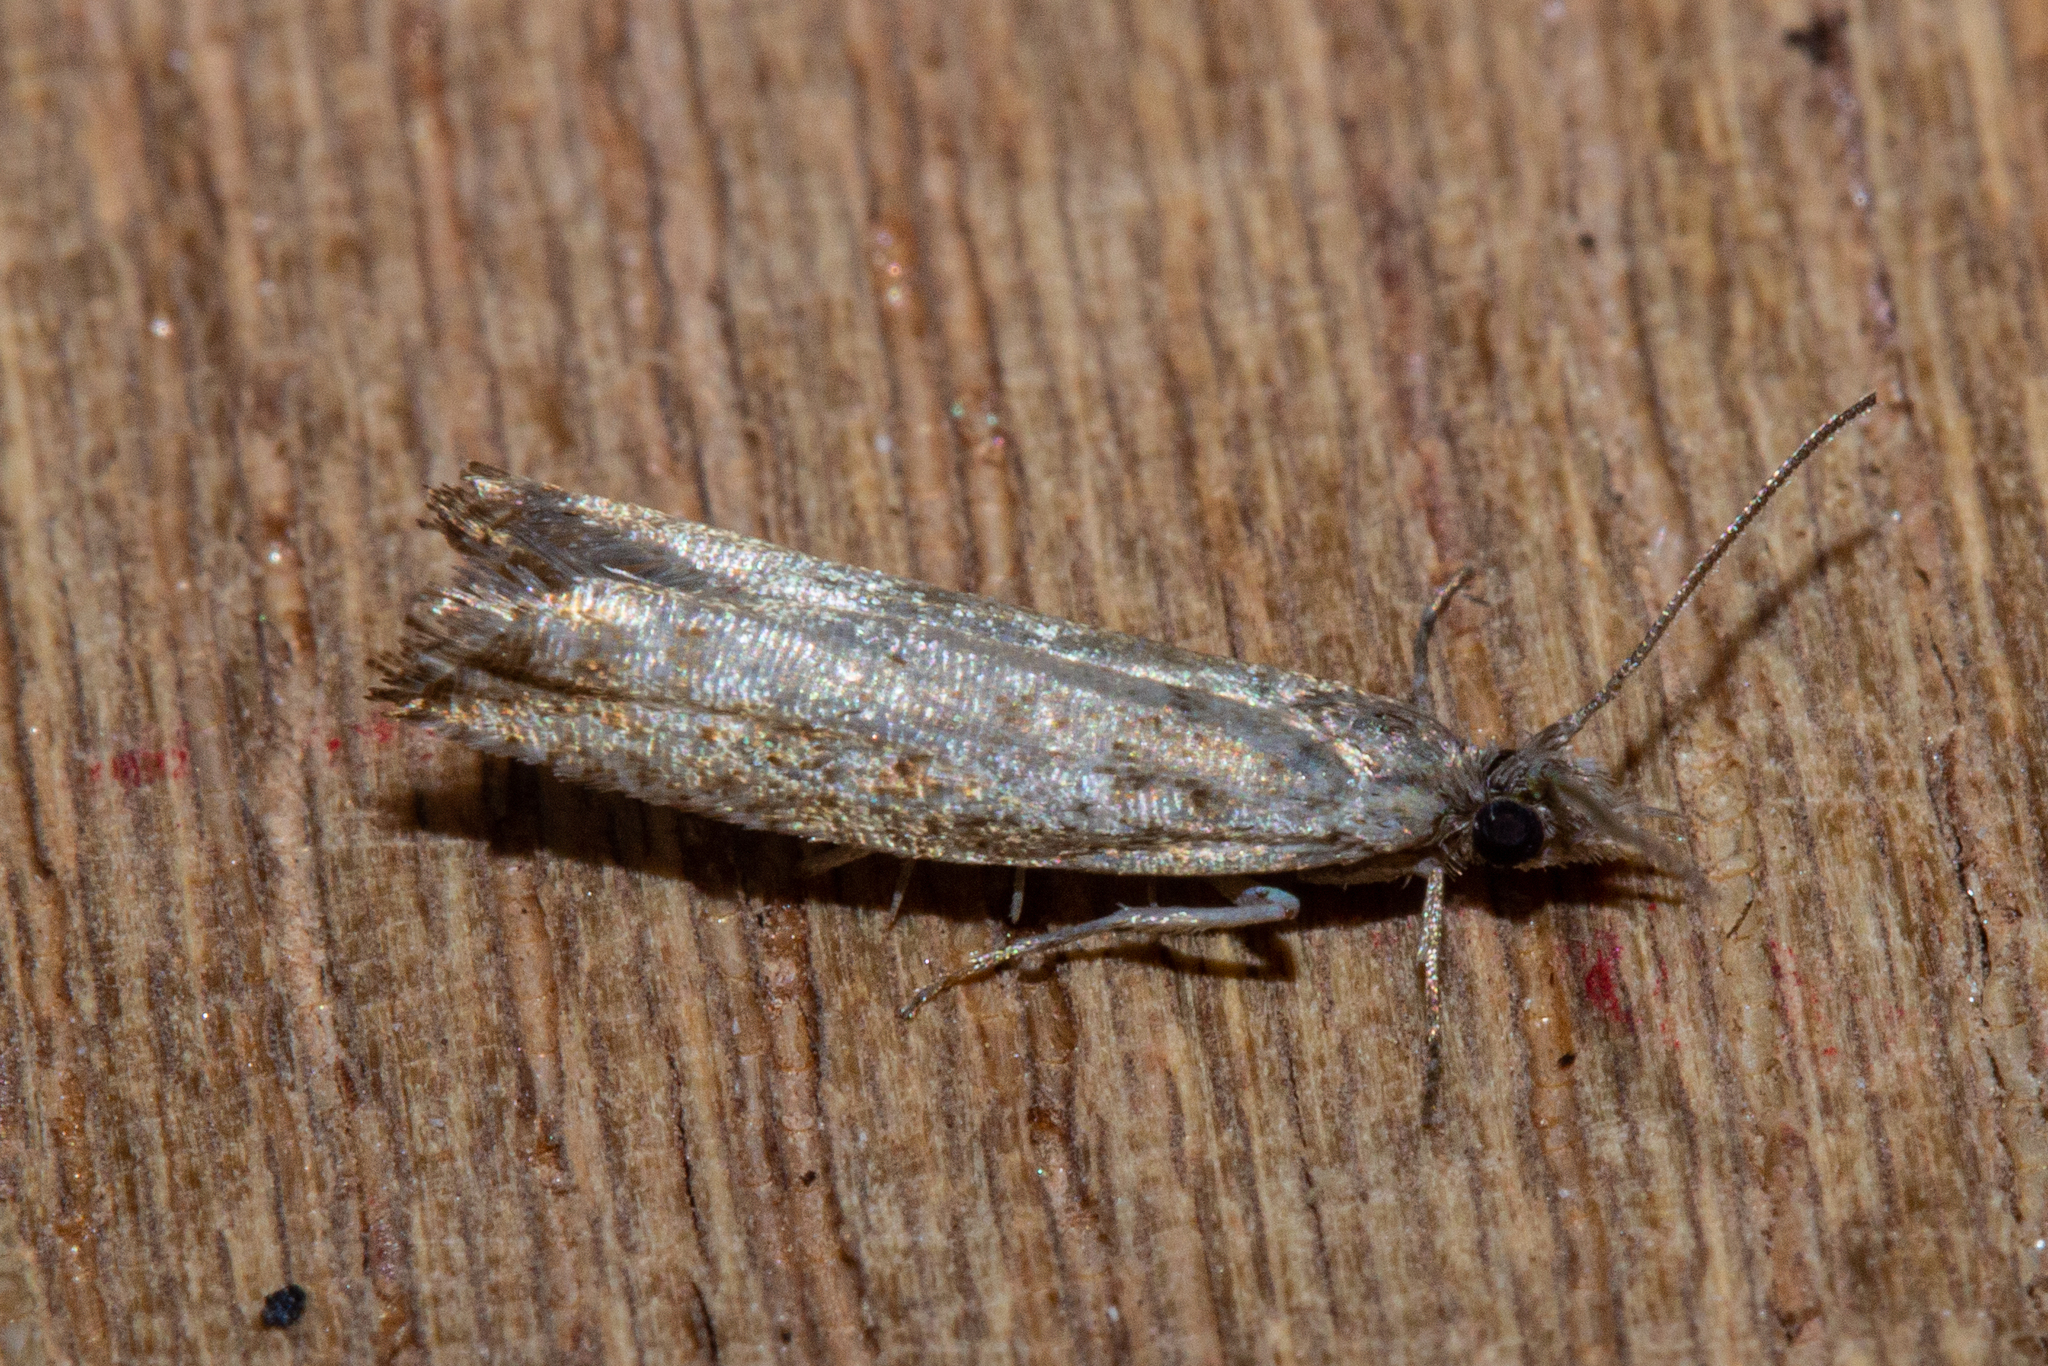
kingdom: Animalia
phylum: Arthropoda
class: Insecta
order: Lepidoptera
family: Tortricidae
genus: Holocola
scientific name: Holocola zopherana
